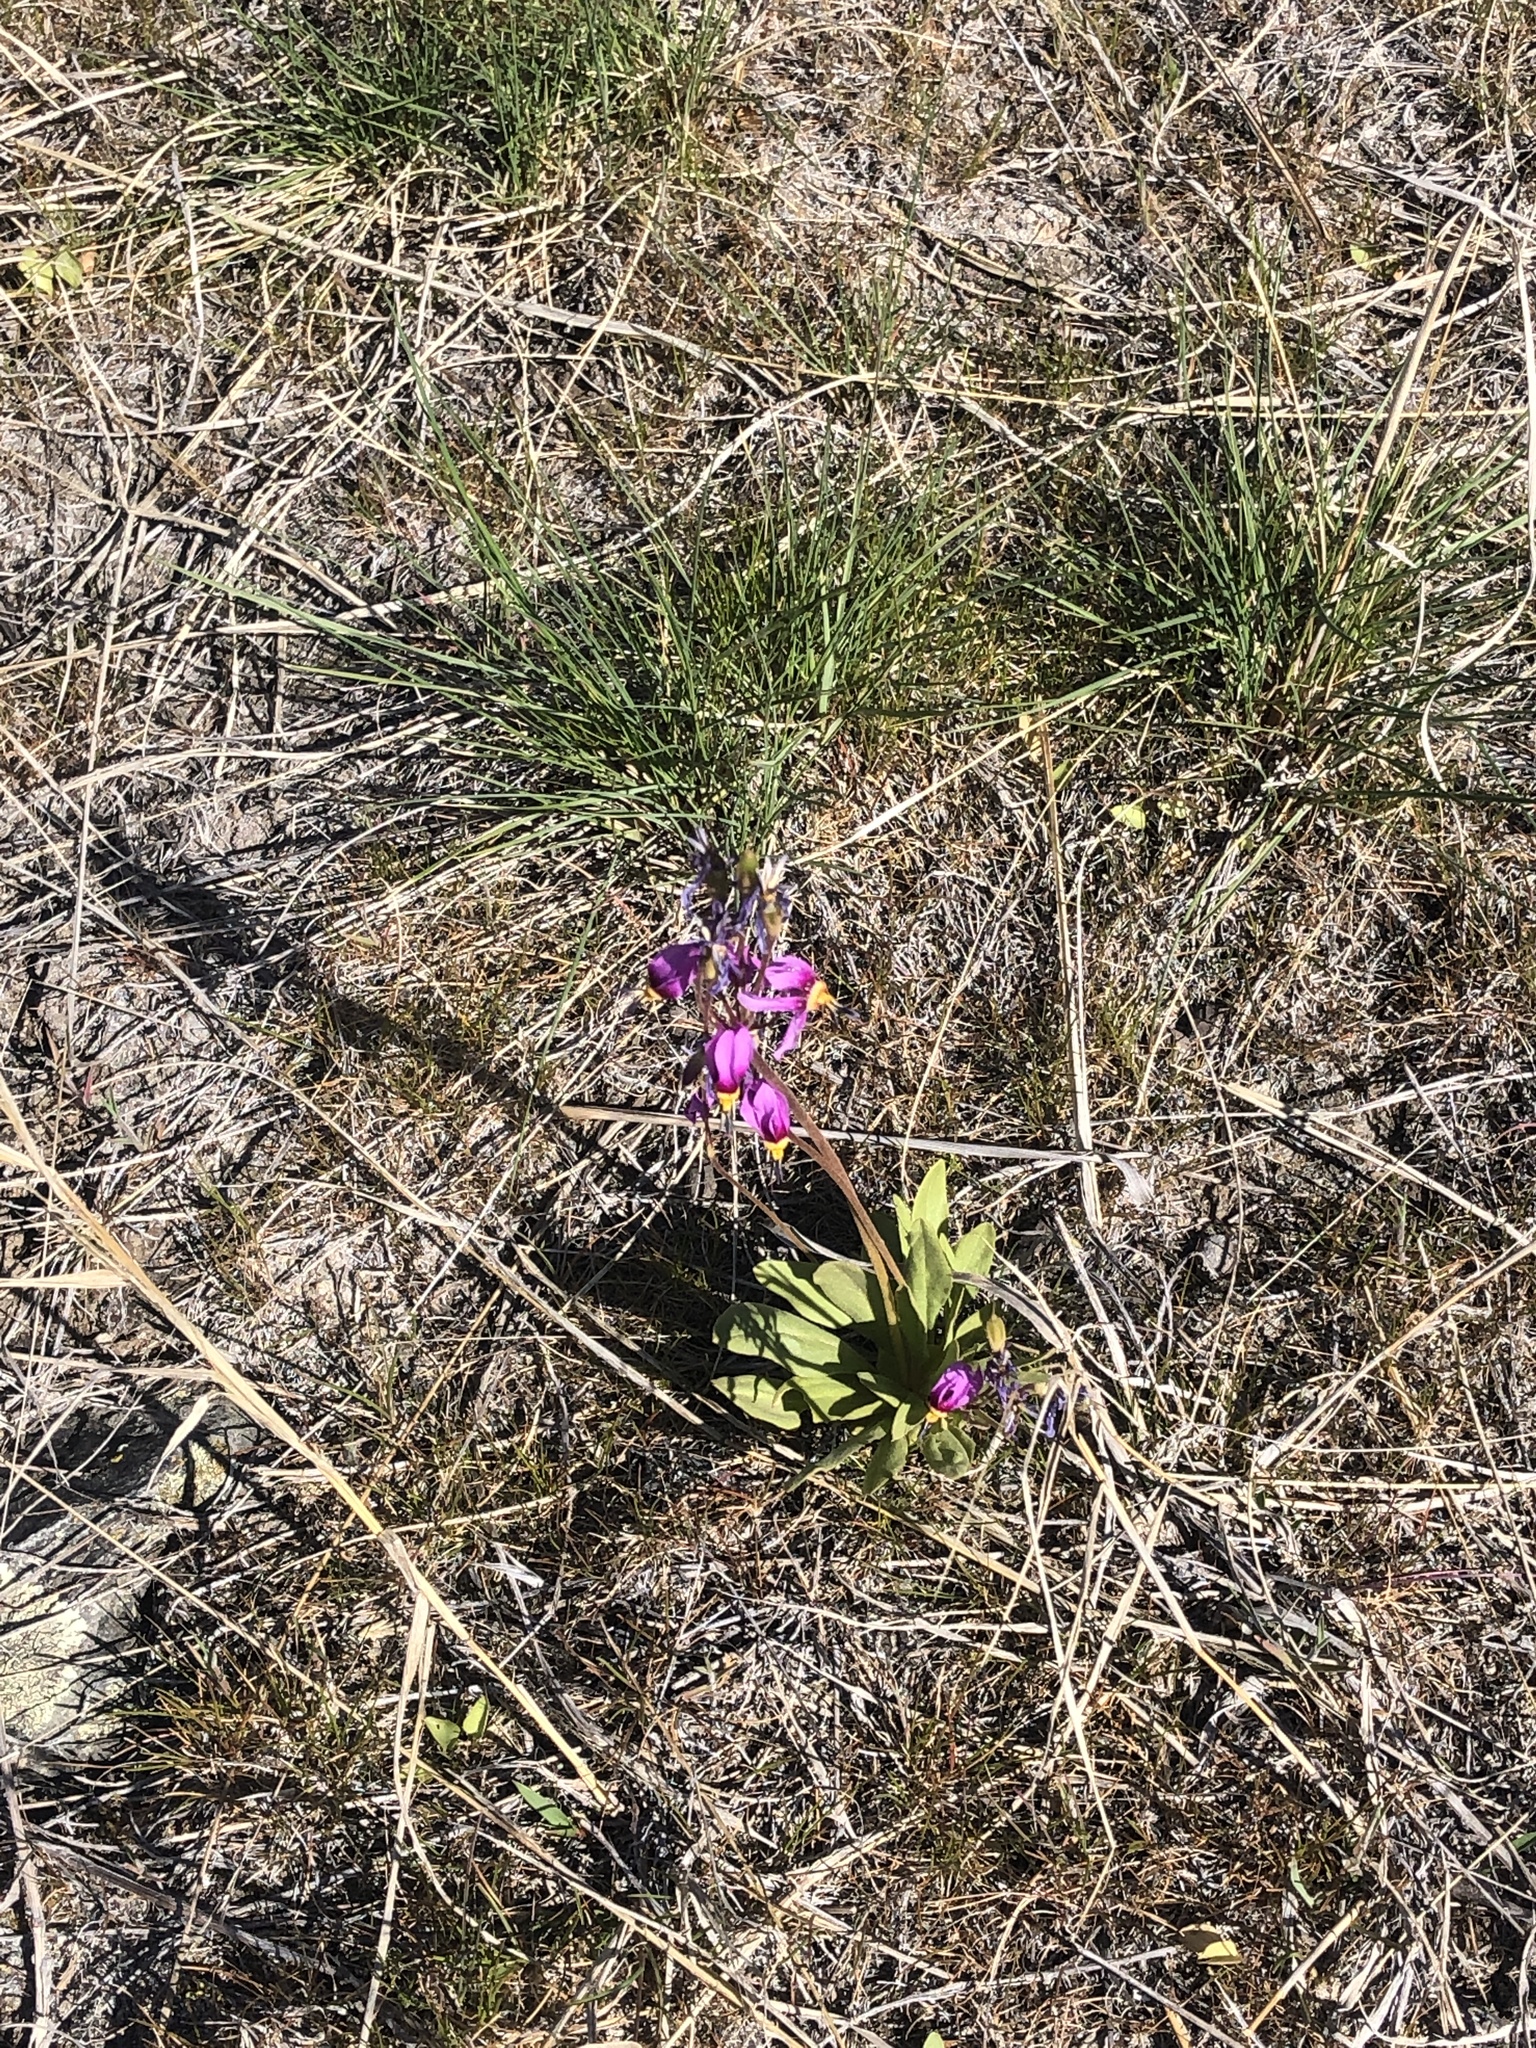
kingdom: Plantae
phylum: Tracheophyta
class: Magnoliopsida
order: Ericales
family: Primulaceae
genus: Dodecatheon
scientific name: Dodecatheon pulchellum
